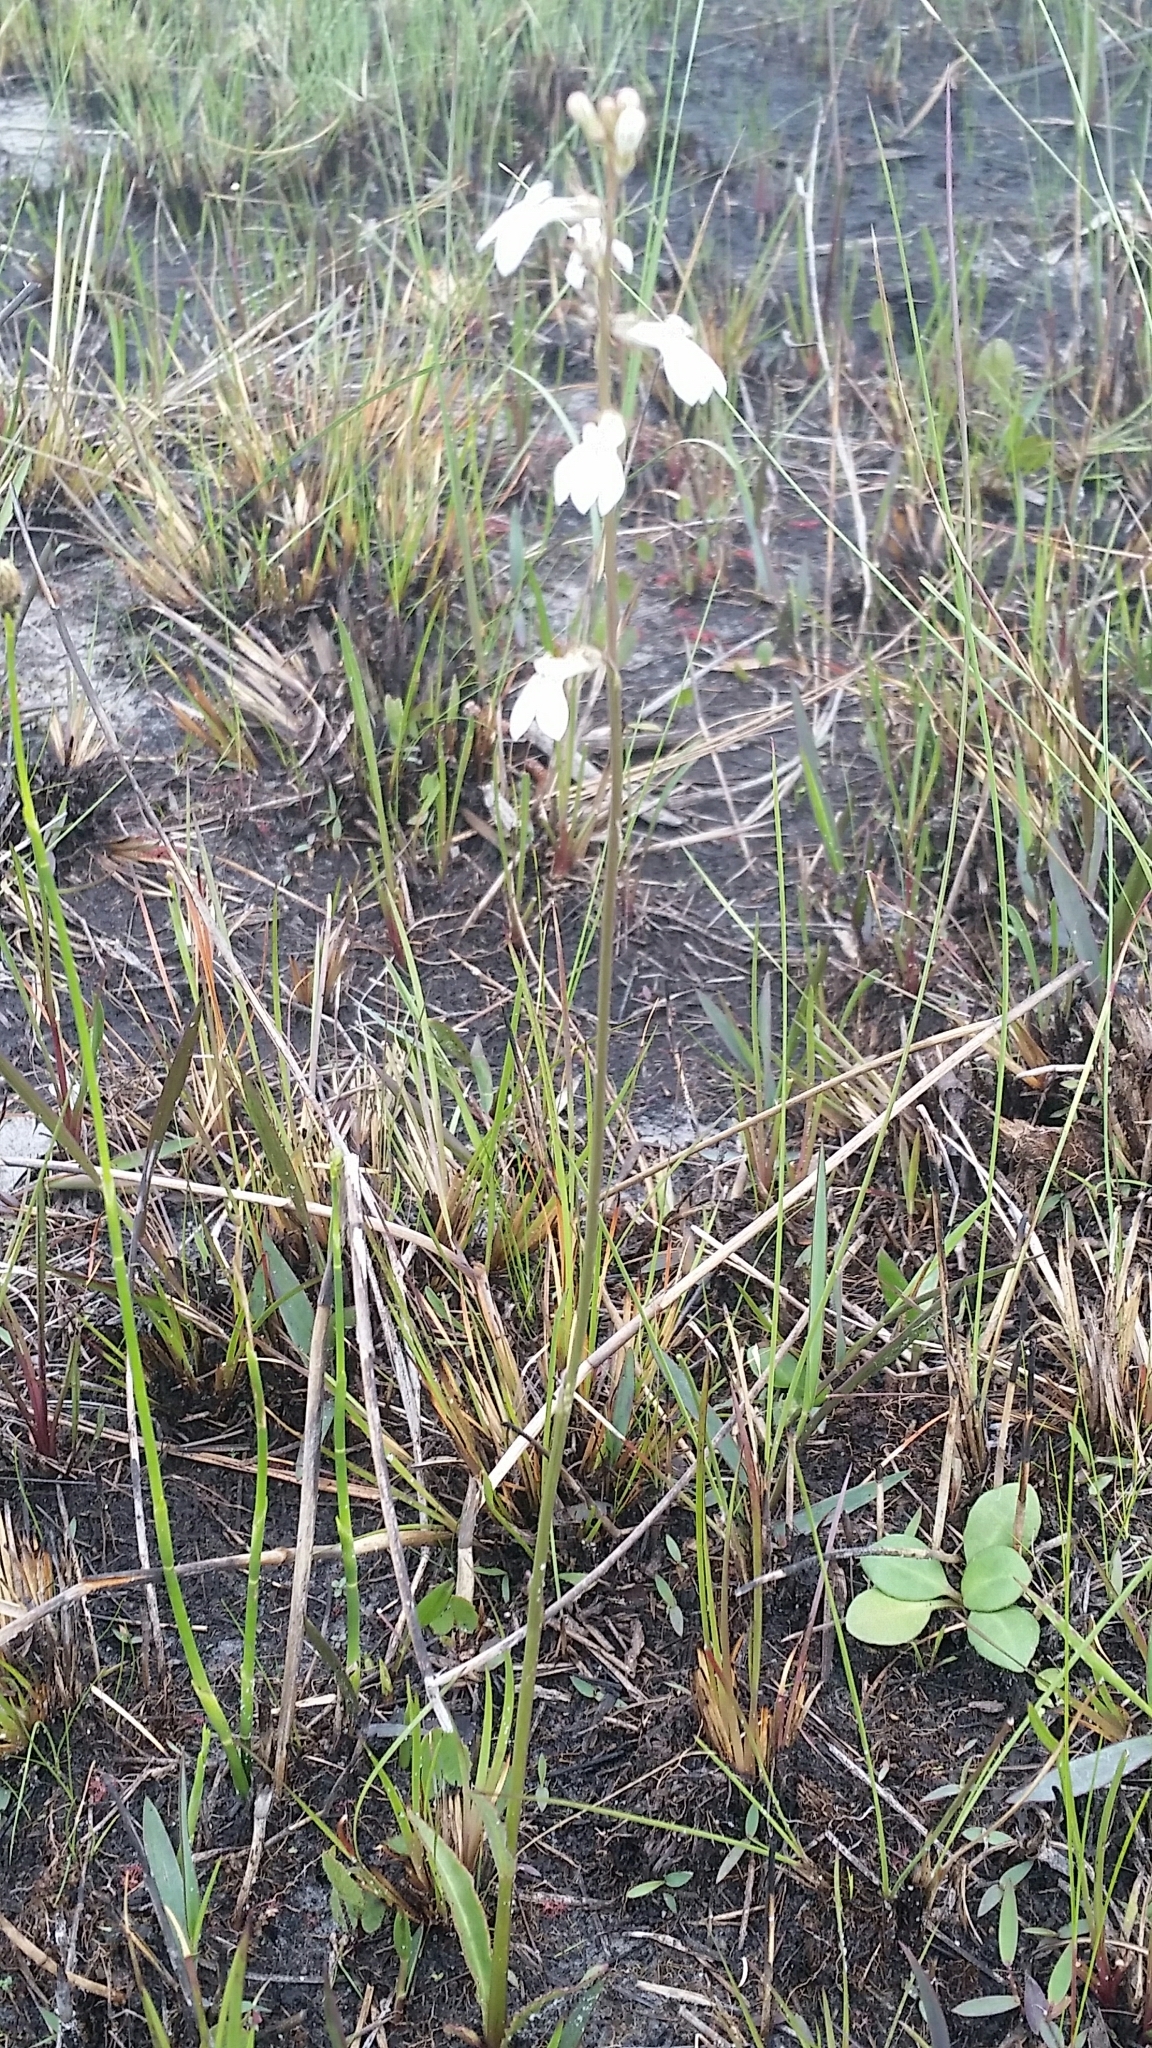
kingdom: Plantae
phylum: Tracheophyta
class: Magnoliopsida
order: Asterales
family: Campanulaceae
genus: Lobelia
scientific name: Lobelia paludosa
